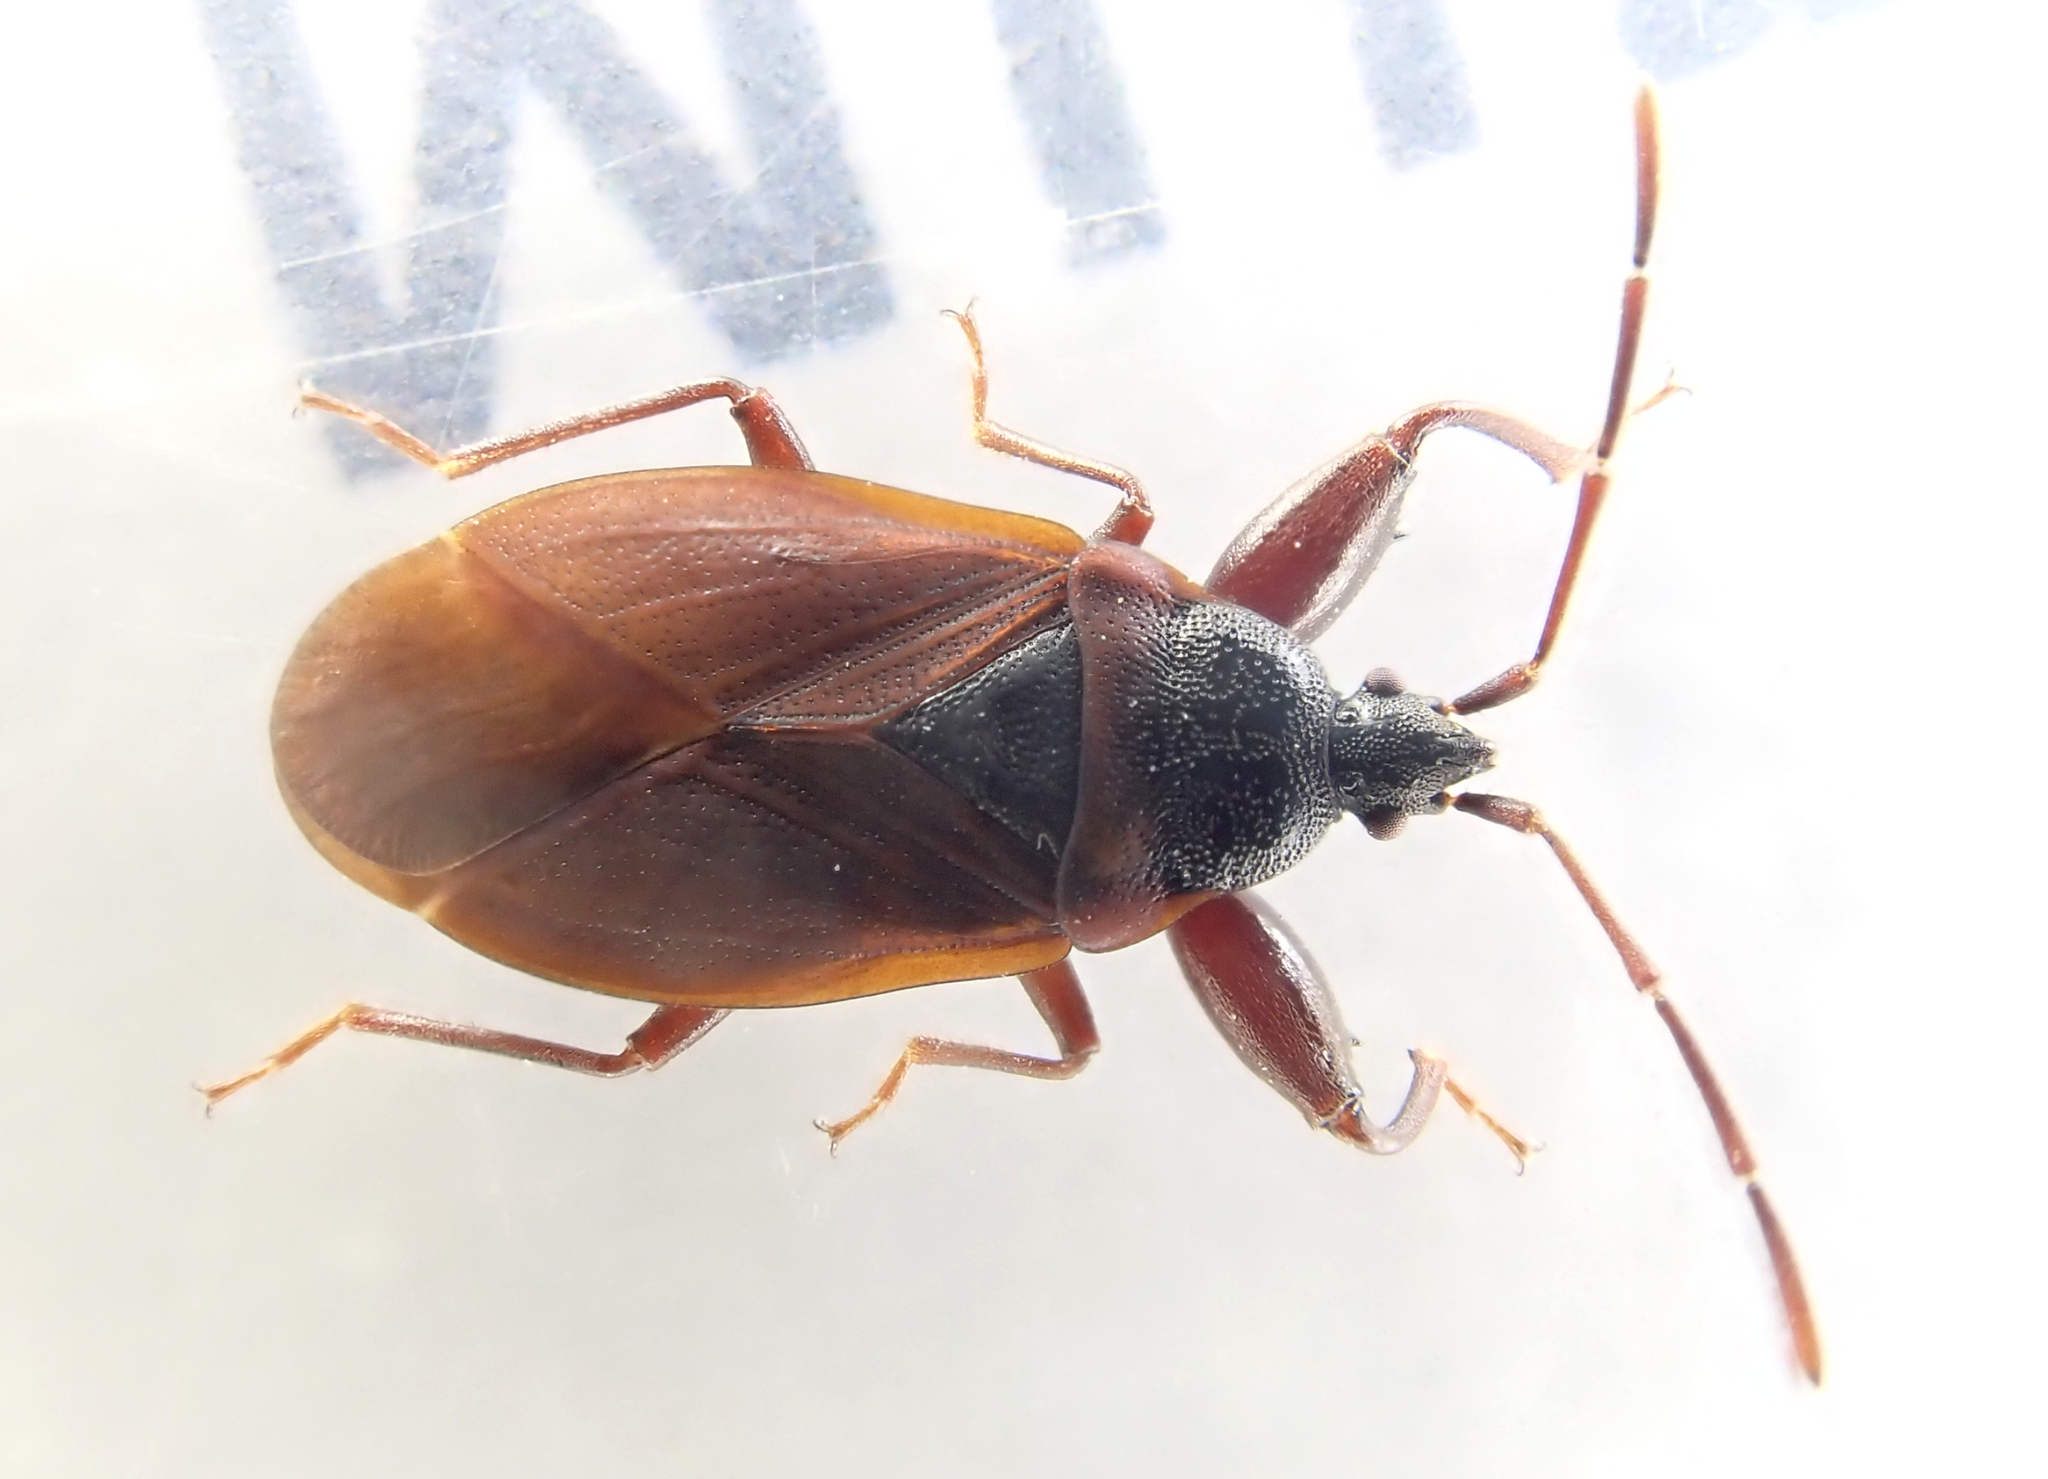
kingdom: Animalia
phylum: Arthropoda
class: Insecta
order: Hemiptera
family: Rhyparochromidae
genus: Gastrodes
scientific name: Gastrodes grossipes
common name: Pine cone bug
